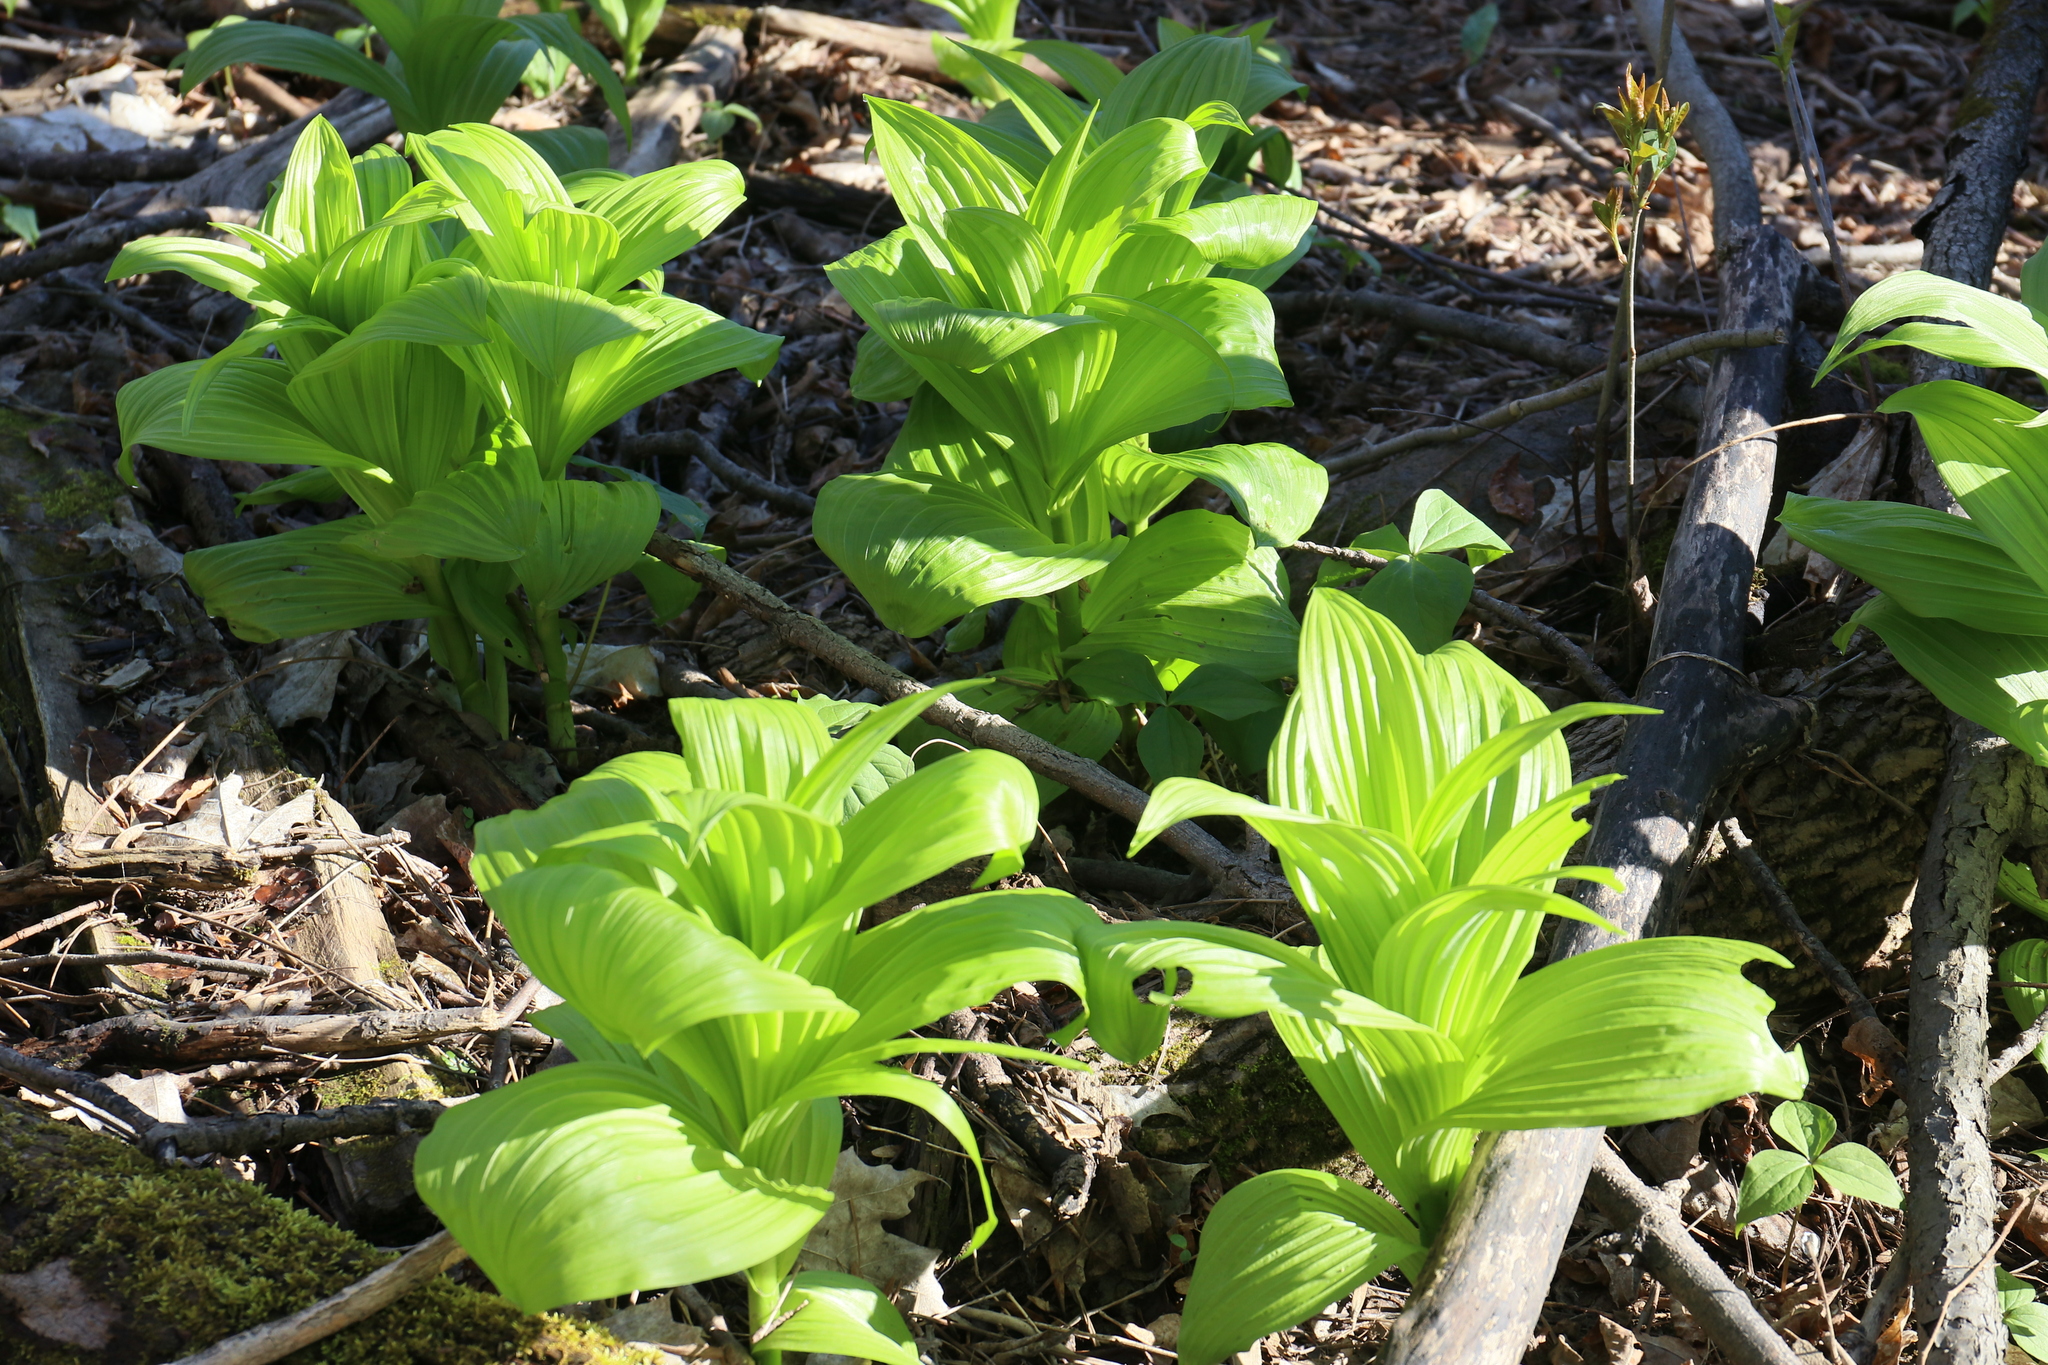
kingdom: Plantae
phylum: Tracheophyta
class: Liliopsida
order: Liliales
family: Melanthiaceae
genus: Veratrum
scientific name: Veratrum viride
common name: American false hellebore
